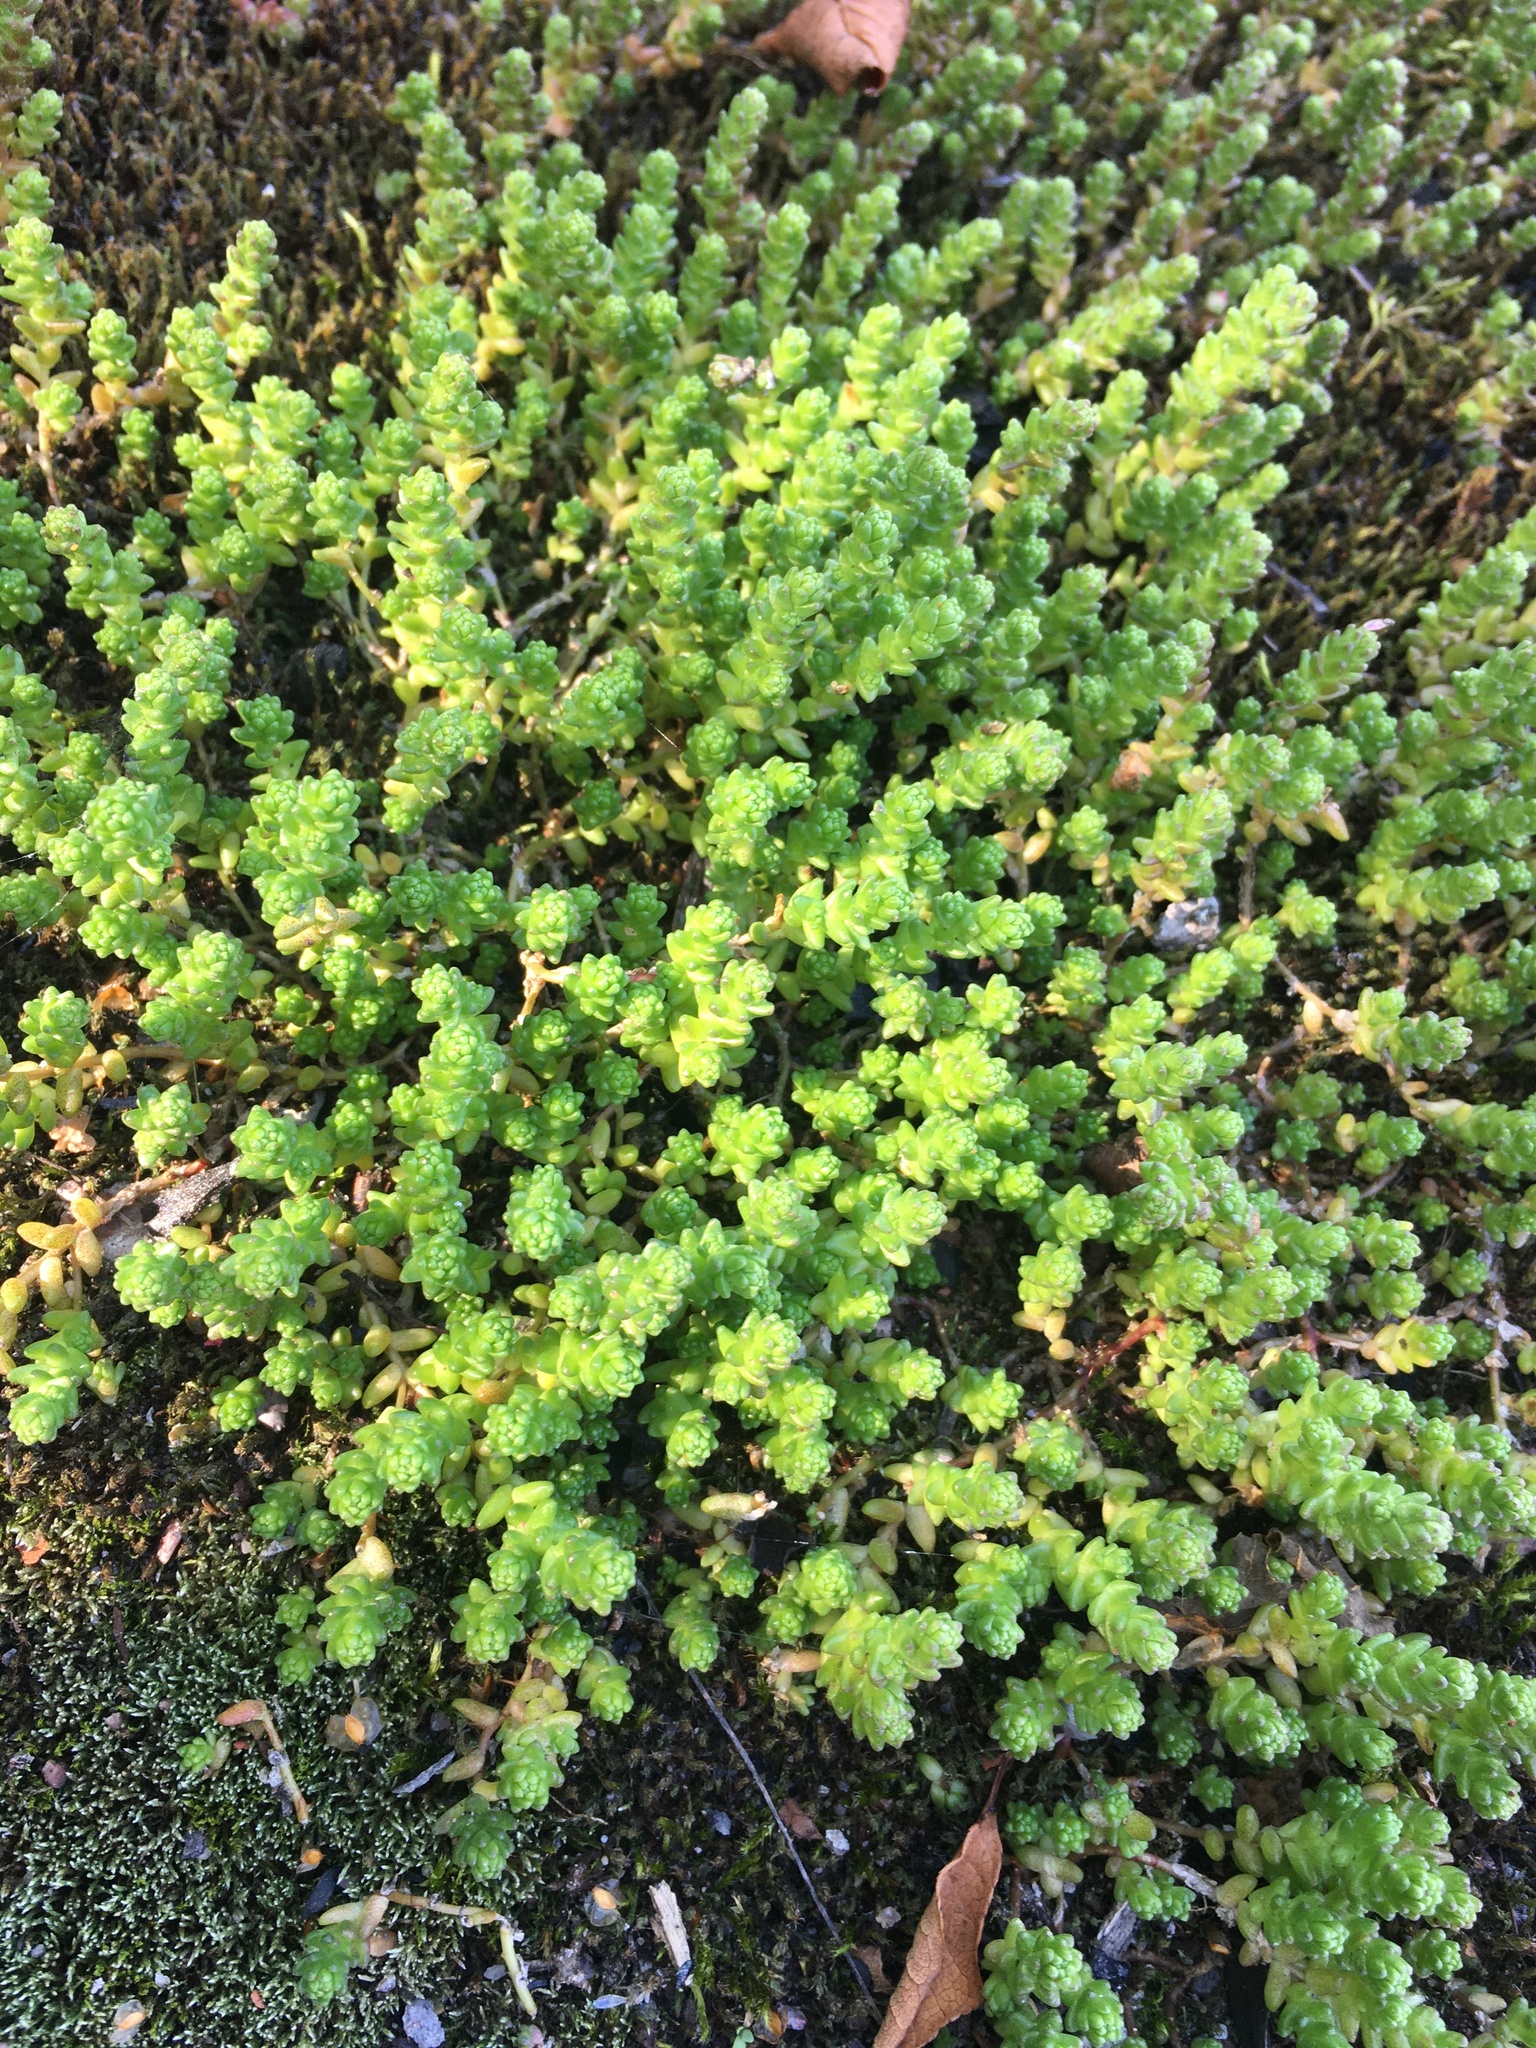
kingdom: Plantae
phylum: Tracheophyta
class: Magnoliopsida
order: Saxifragales
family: Crassulaceae
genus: Sedum
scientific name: Sedum acre
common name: Biting stonecrop
